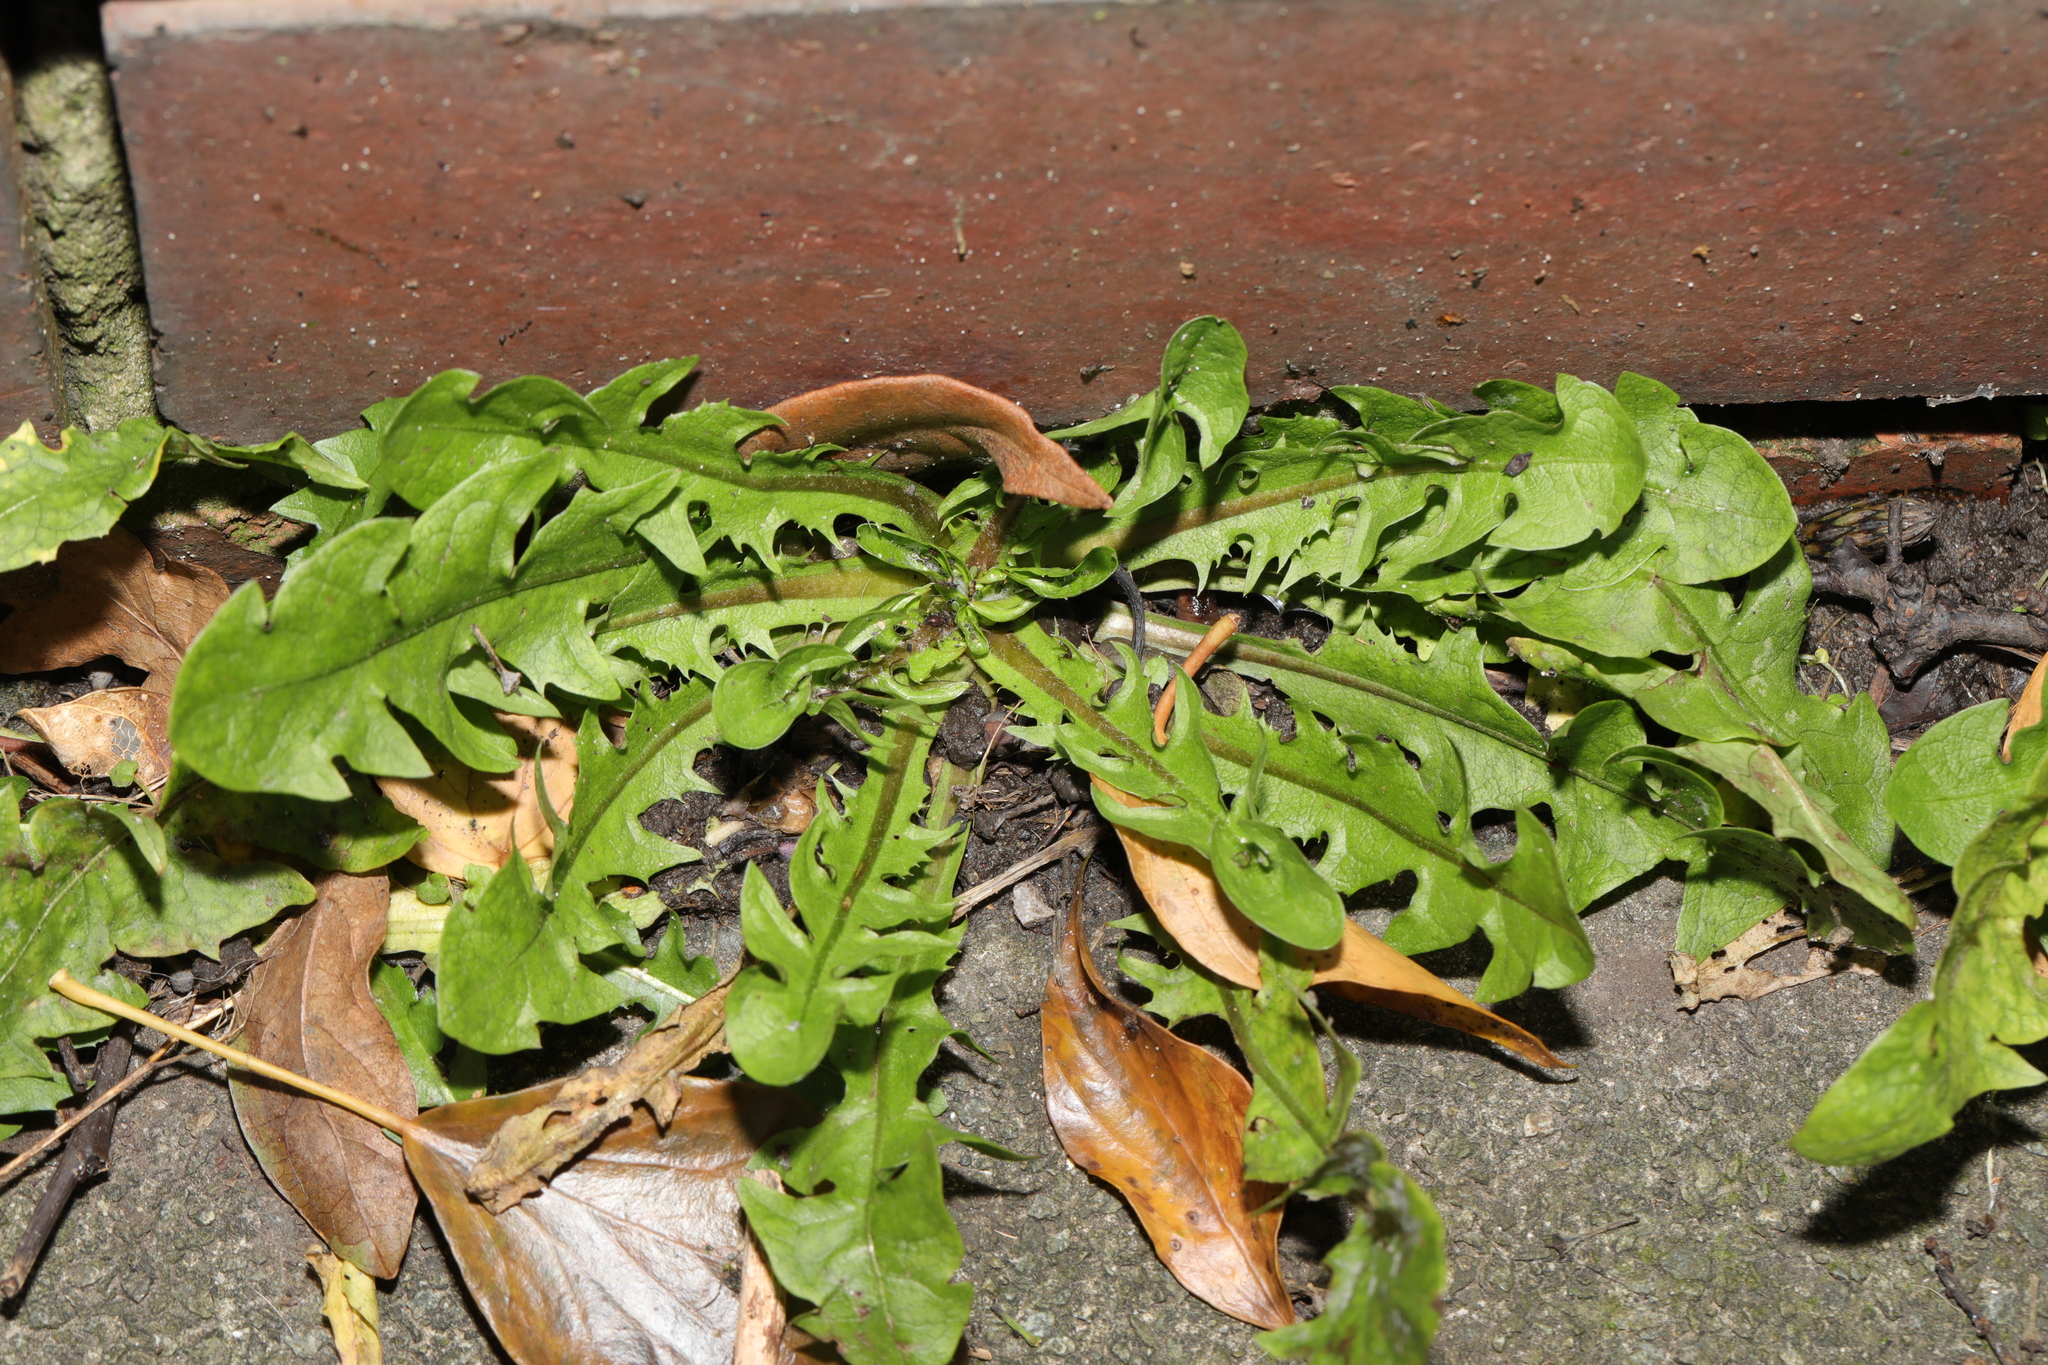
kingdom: Plantae
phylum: Tracheophyta
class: Magnoliopsida
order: Asterales
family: Asteraceae
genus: Taraxacum
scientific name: Taraxacum officinale
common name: Common dandelion
